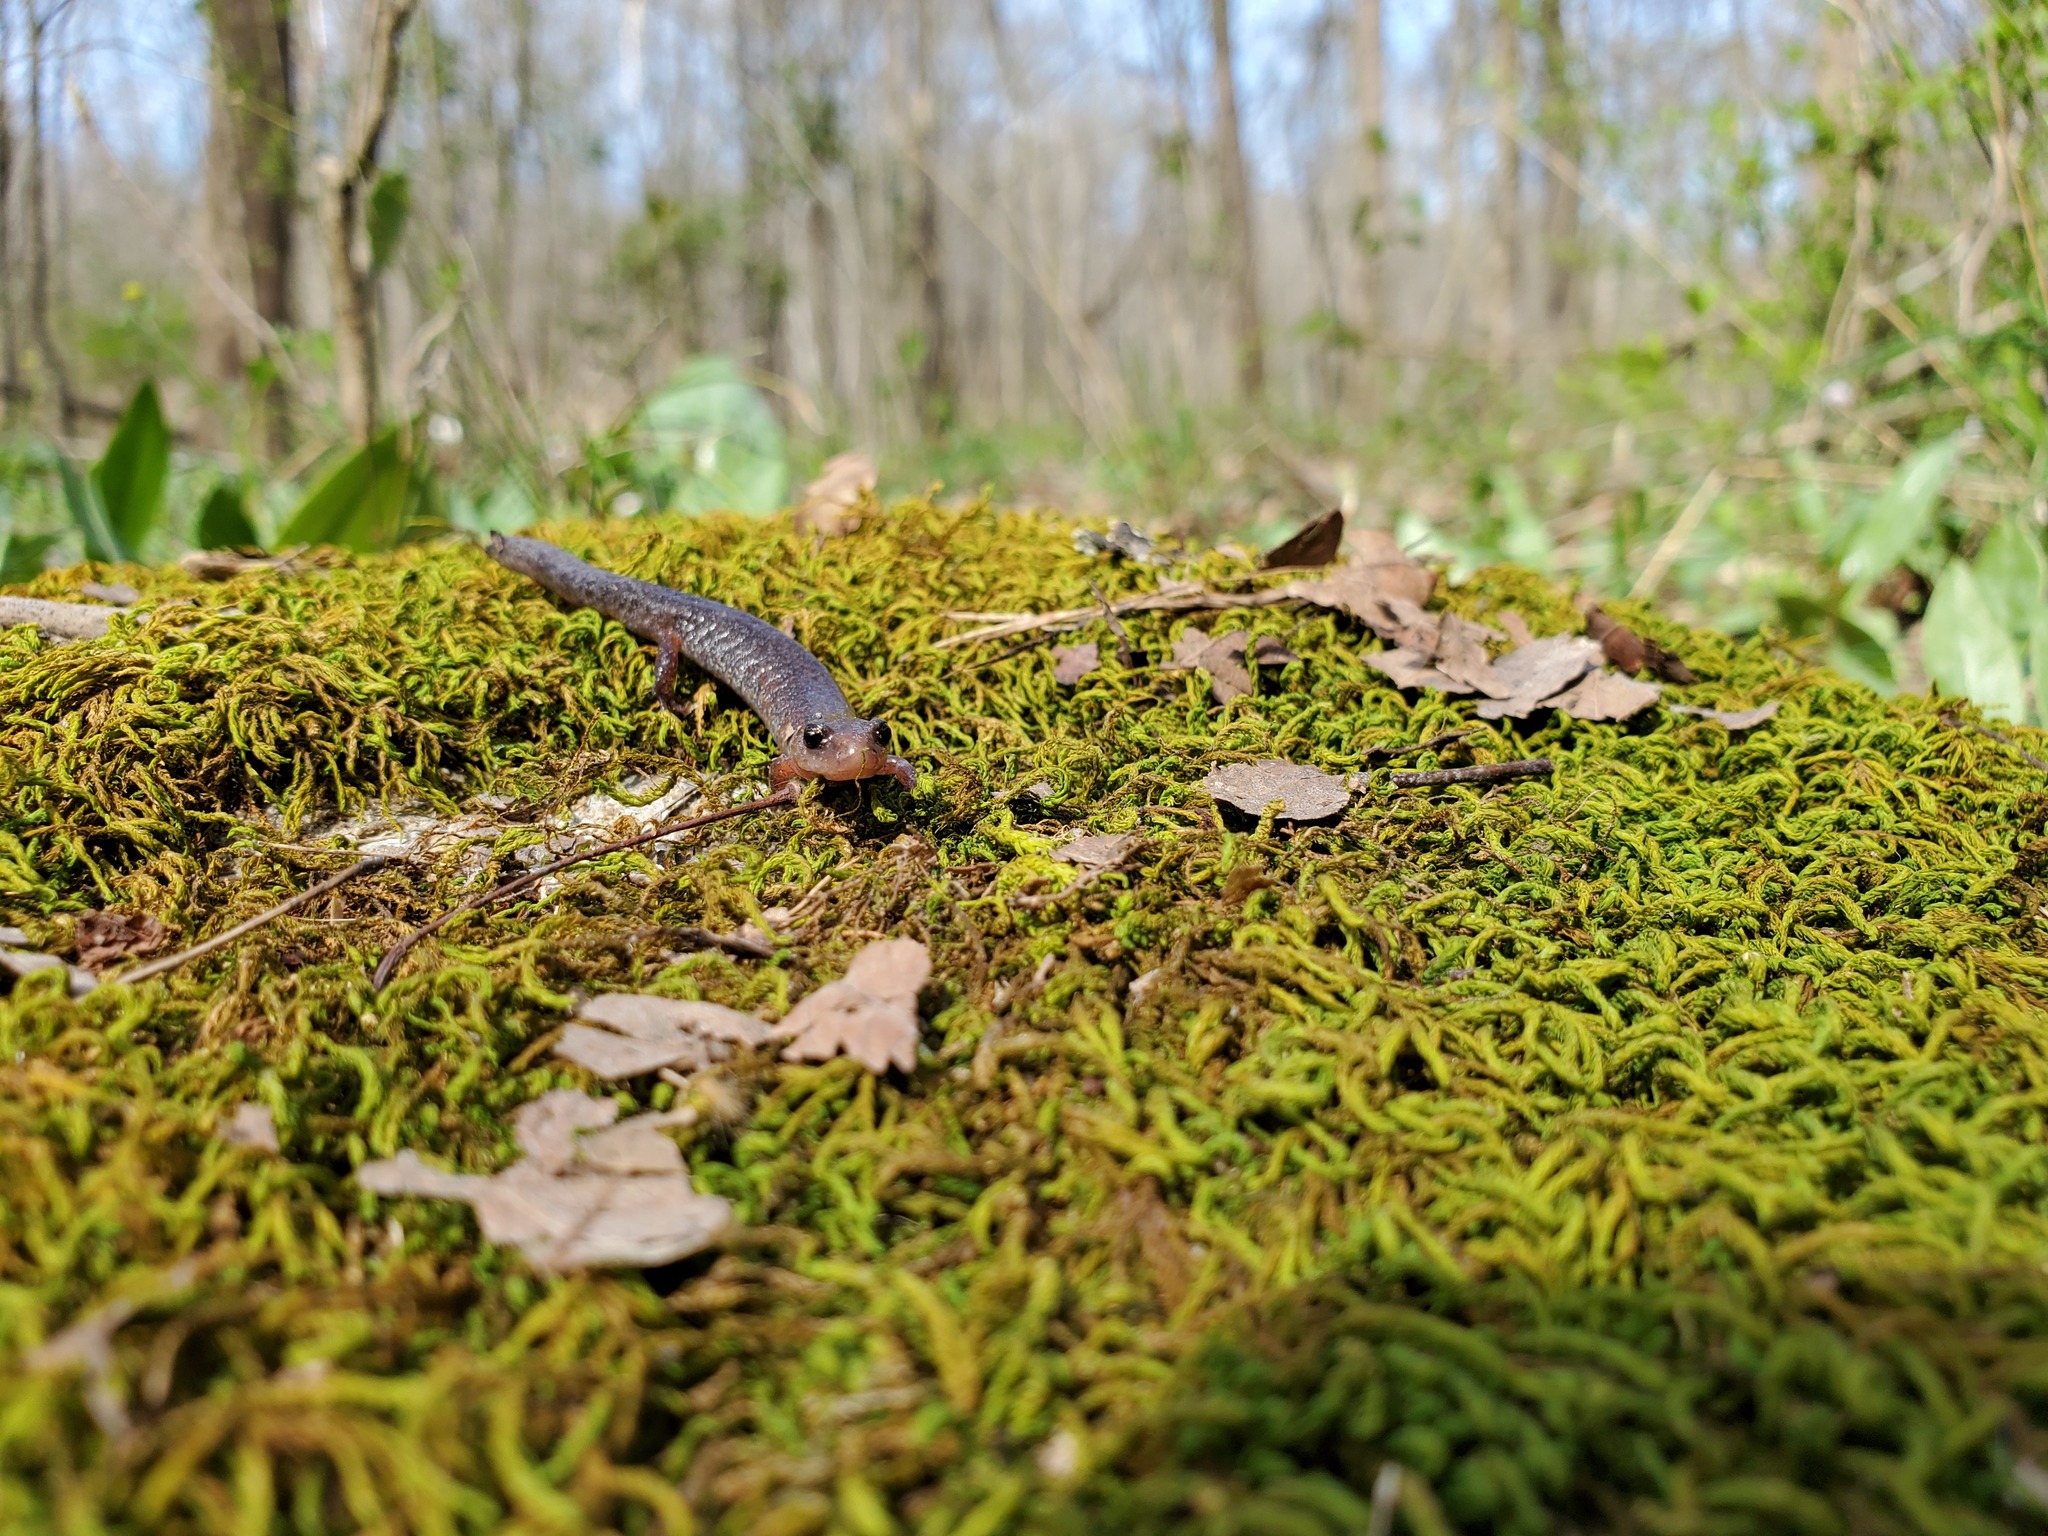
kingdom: Animalia
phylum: Chordata
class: Amphibia
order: Caudata
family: Plethodontidae
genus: Plethodon
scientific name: Plethodon dorsalis
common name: Northern zigzag salamander
